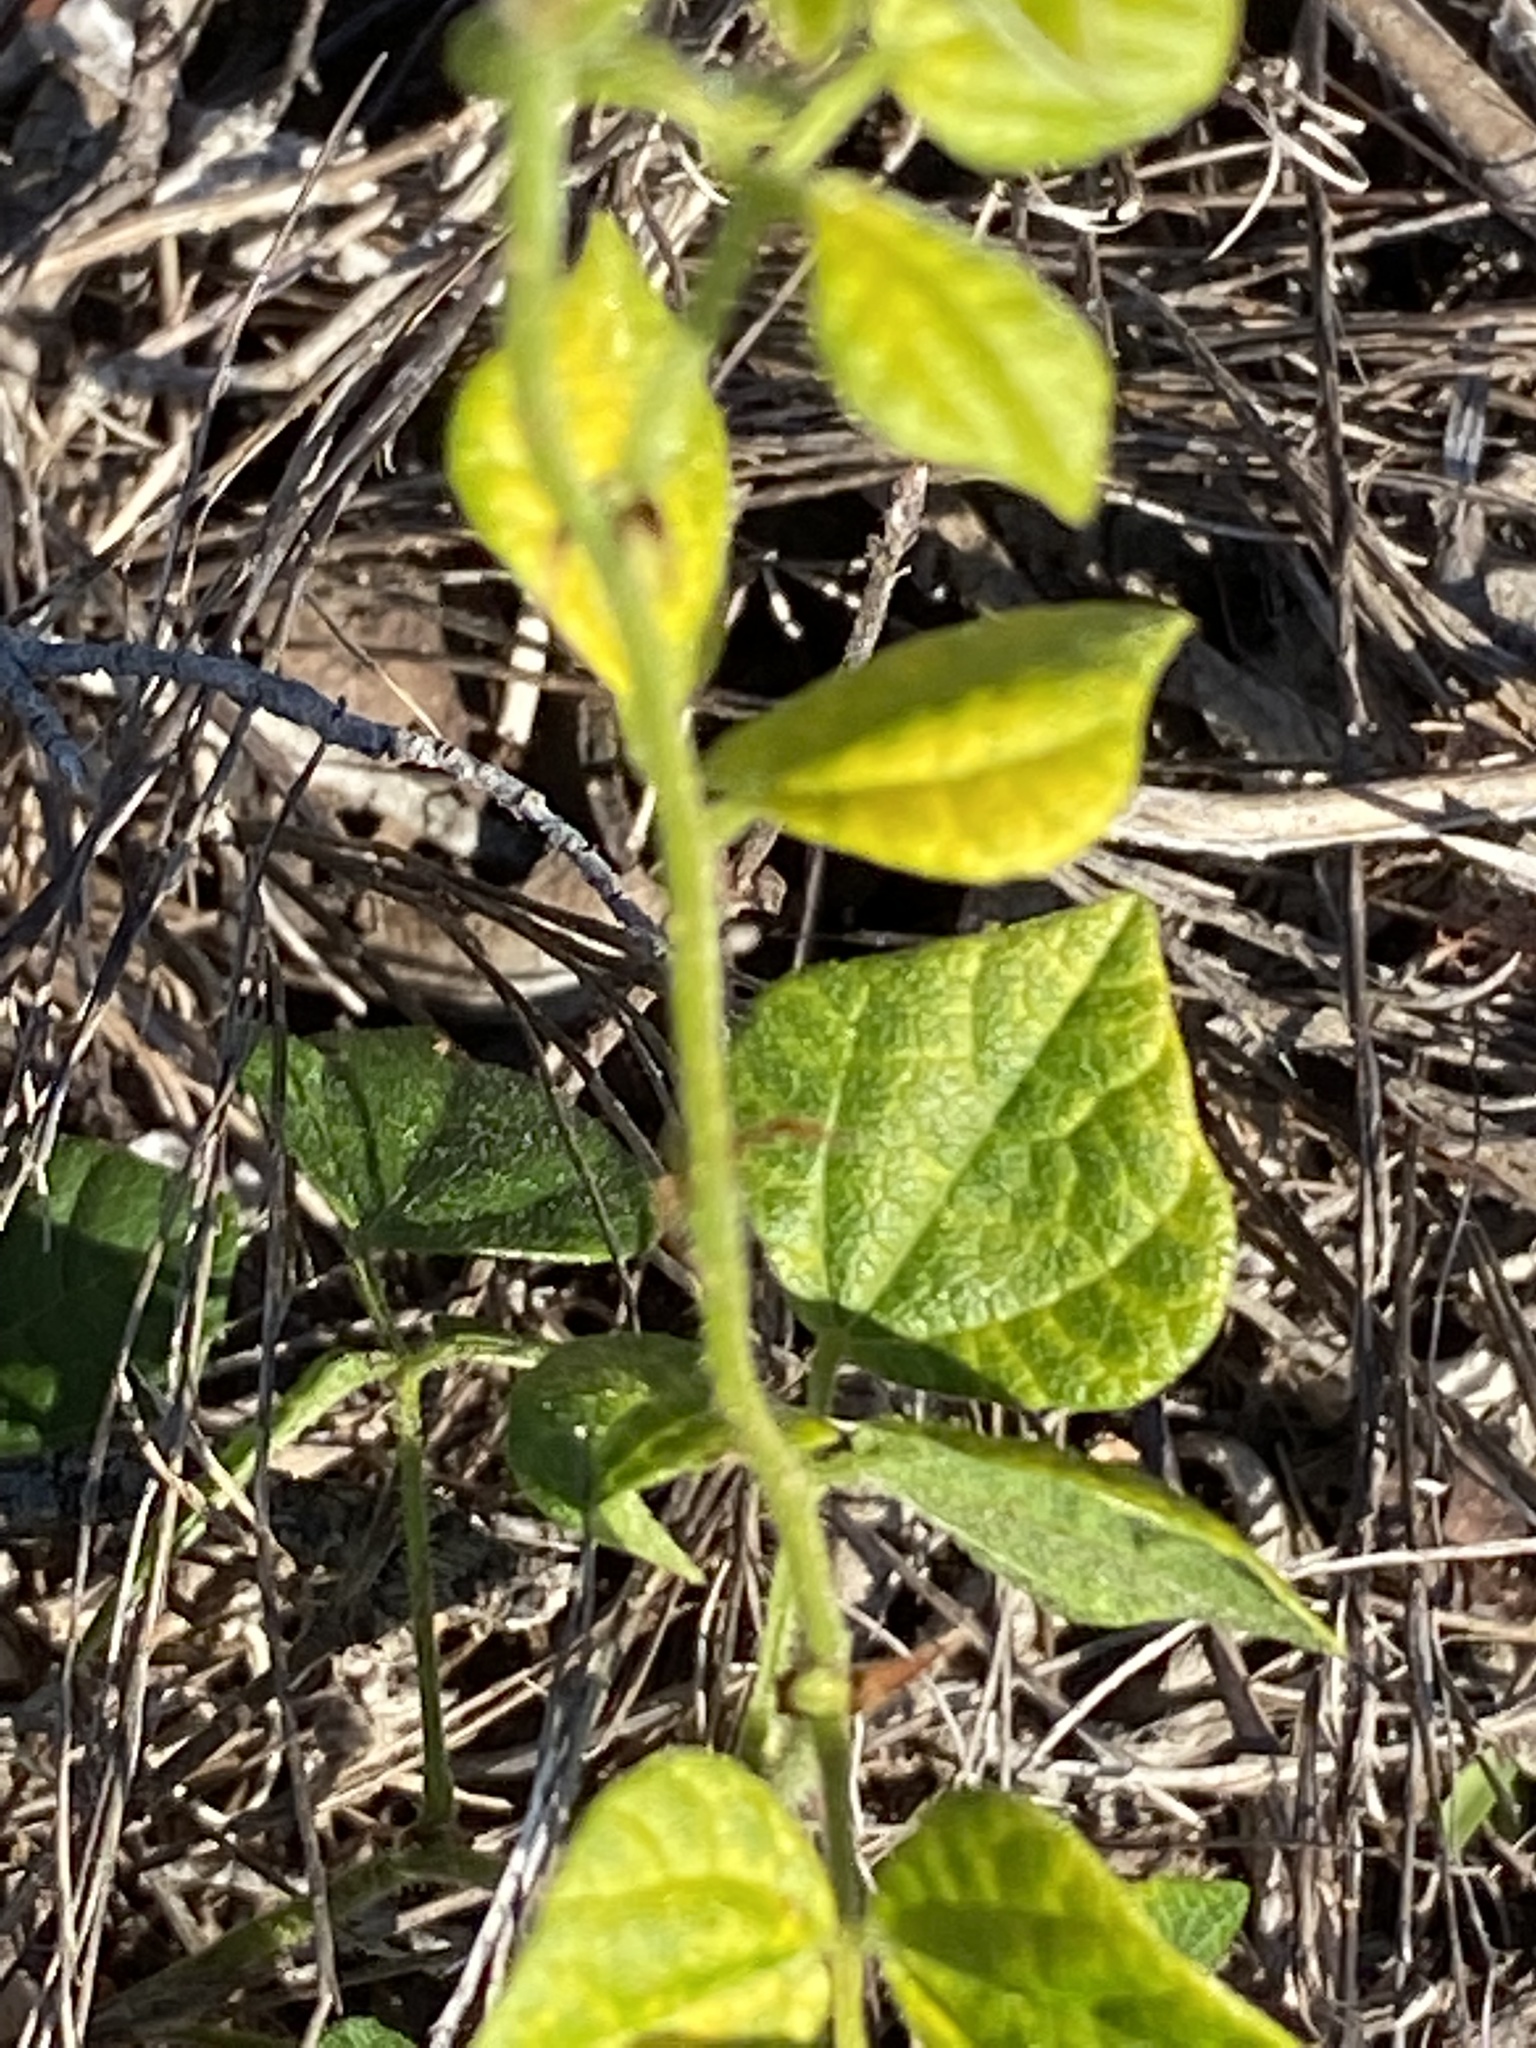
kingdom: Plantae
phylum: Tracheophyta
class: Magnoliopsida
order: Fabales
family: Fabaceae
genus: Rhynchosia
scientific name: Rhynchosia caribaea
